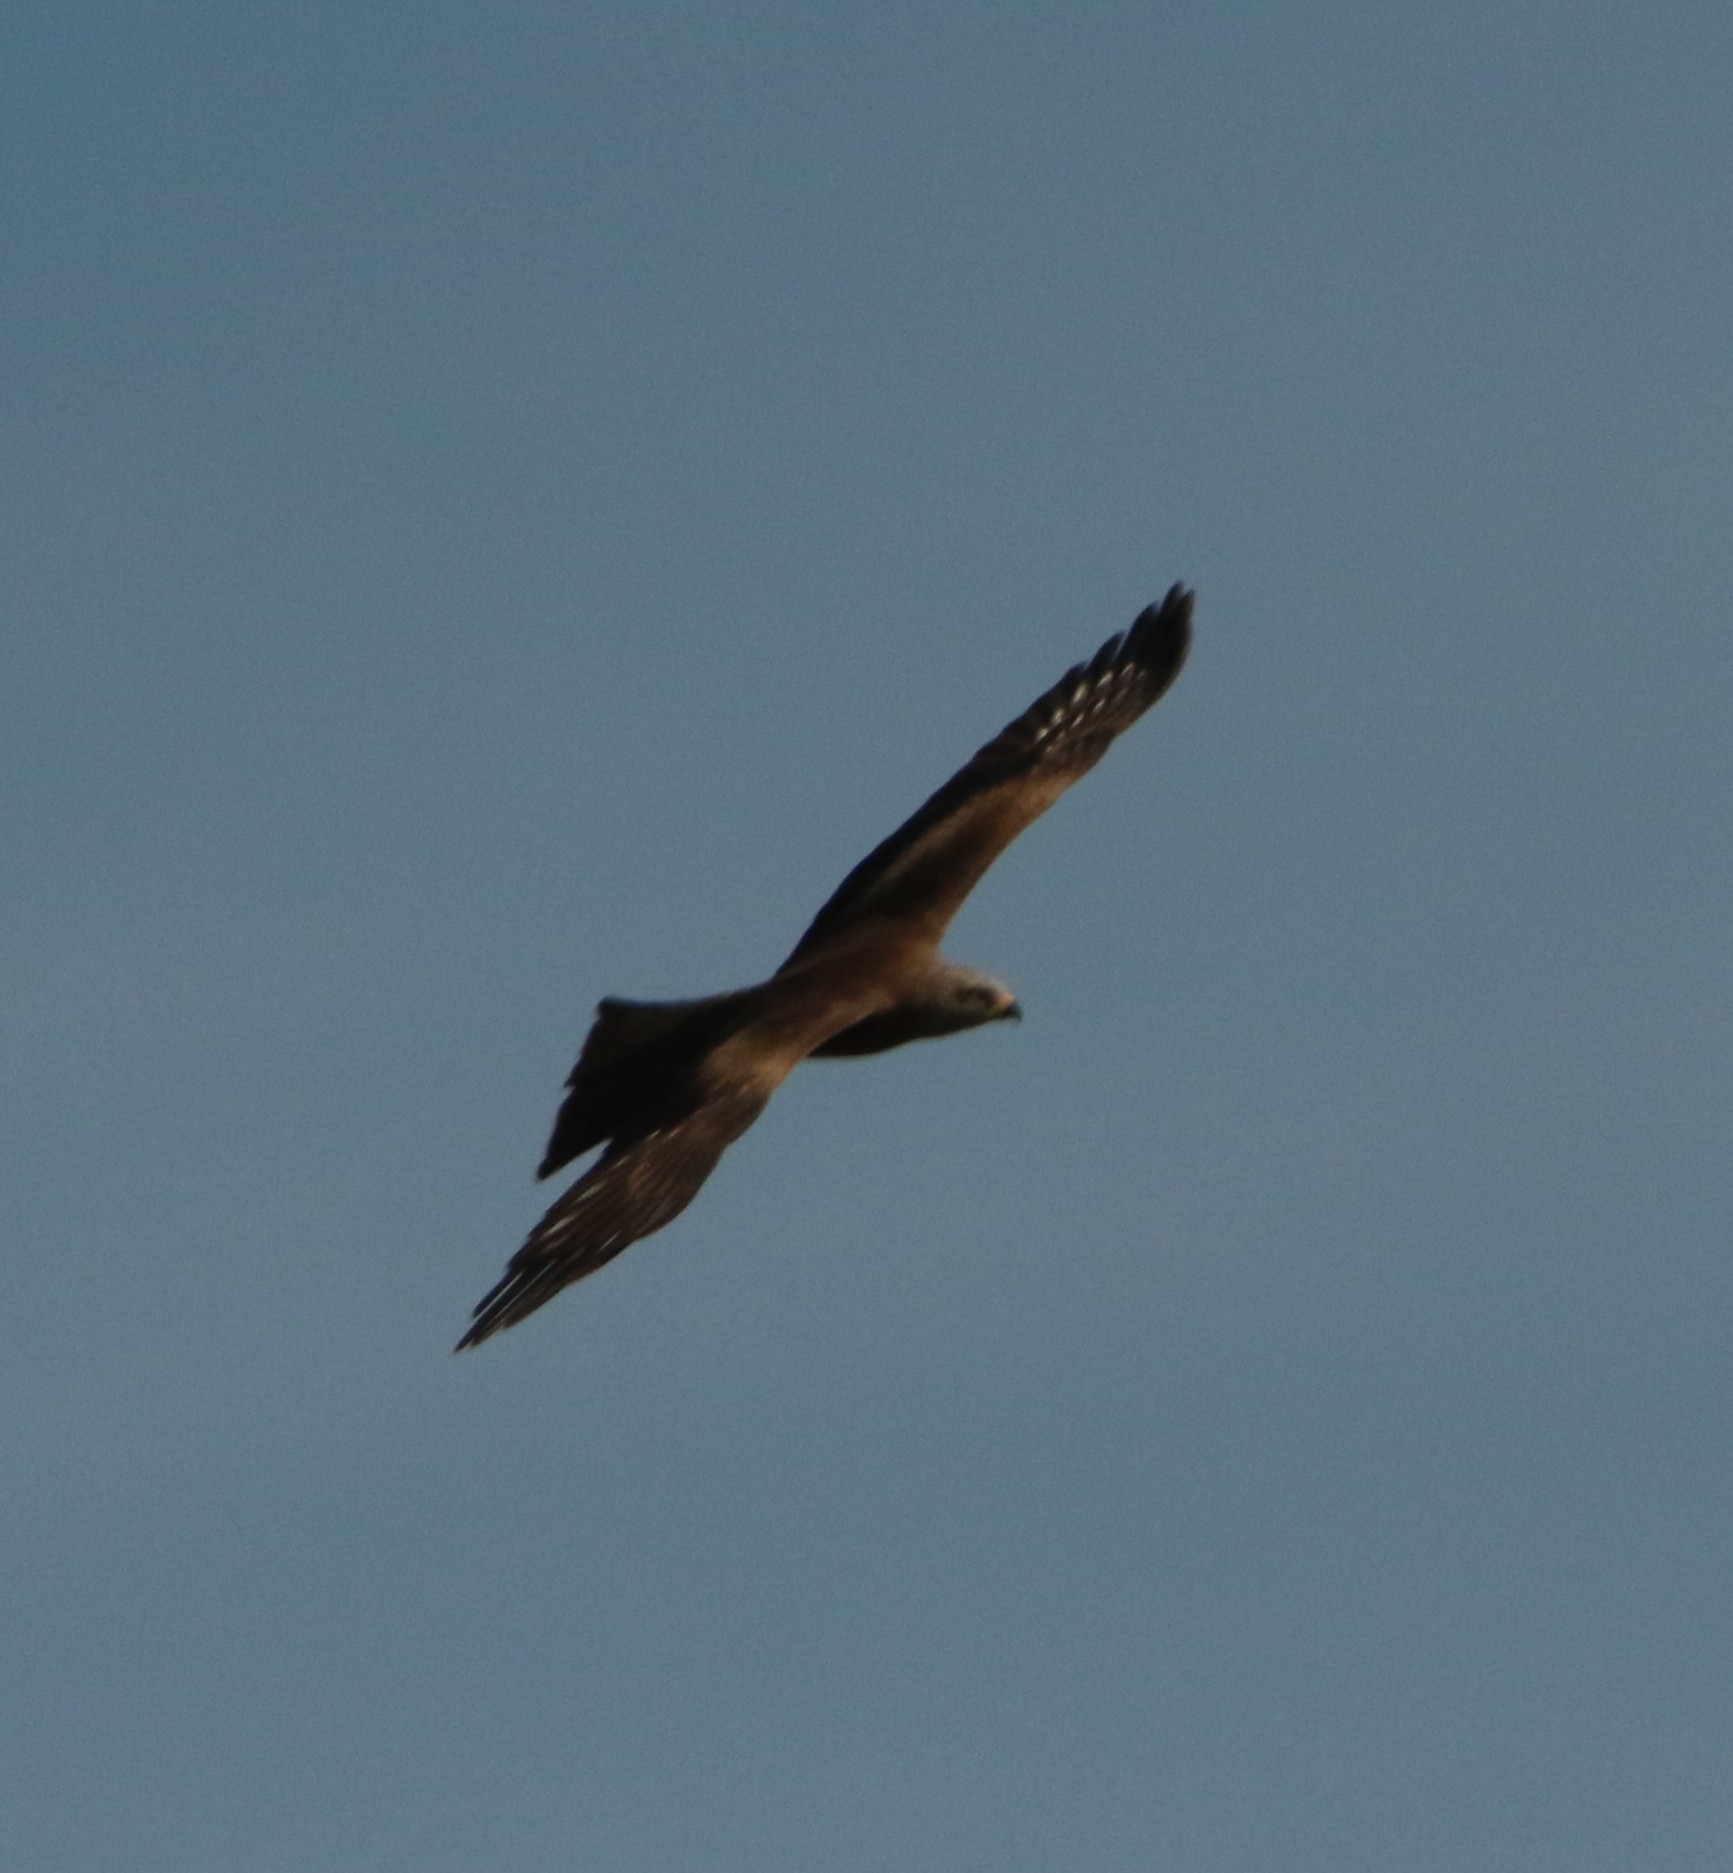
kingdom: Animalia
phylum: Chordata
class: Aves
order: Accipitriformes
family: Accipitridae
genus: Milvus
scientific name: Milvus migrans
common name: Black kite
